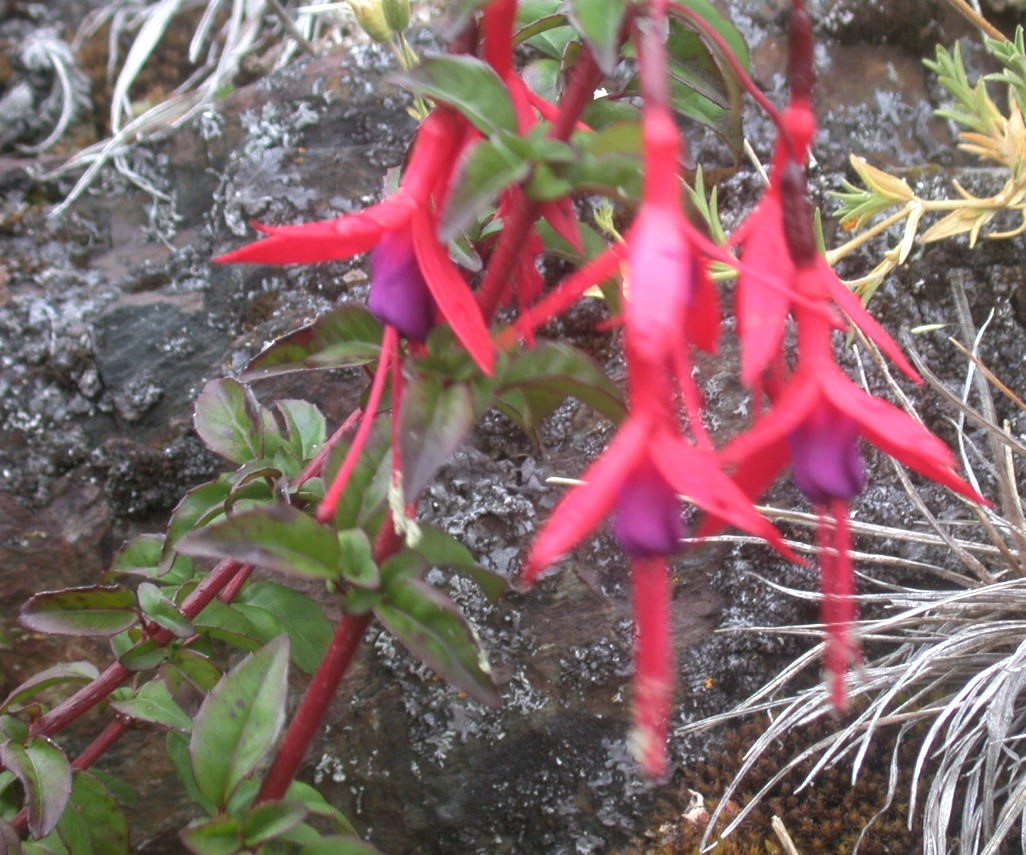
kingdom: Plantae
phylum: Tracheophyta
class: Magnoliopsida
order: Myrtales
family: Onagraceae
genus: Fuchsia
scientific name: Fuchsia magellanica
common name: Hardy fuchsia
